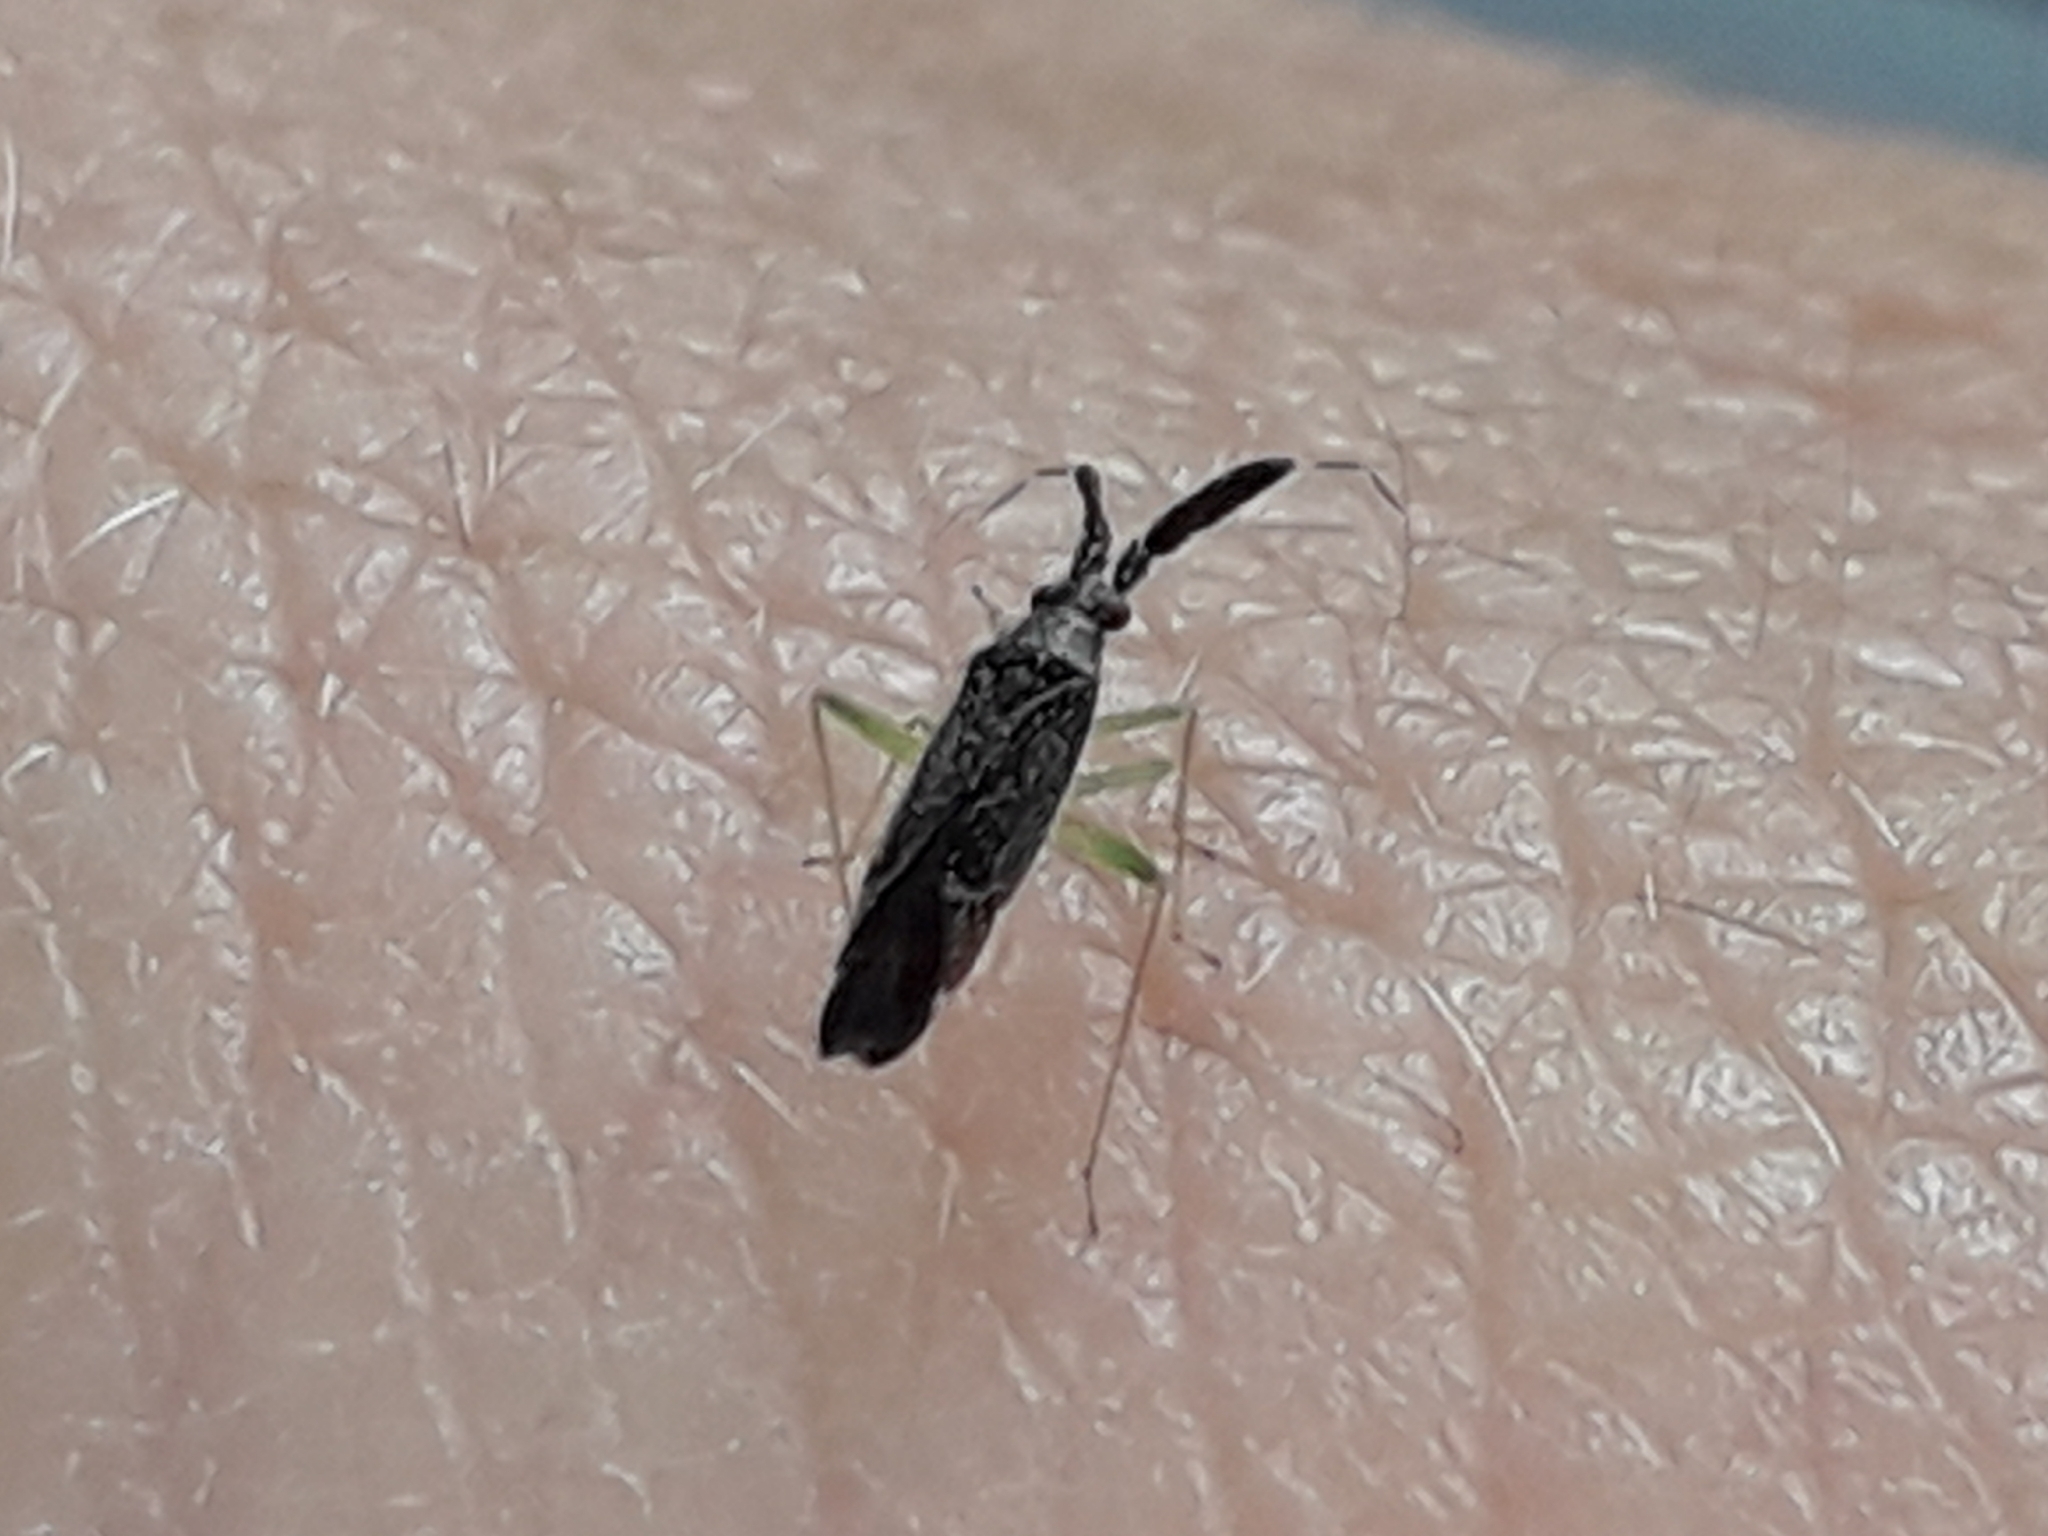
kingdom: Animalia
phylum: Arthropoda
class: Insecta
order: Hemiptera
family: Miridae
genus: Heterotoma
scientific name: Heterotoma planicornis
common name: Plant bug
